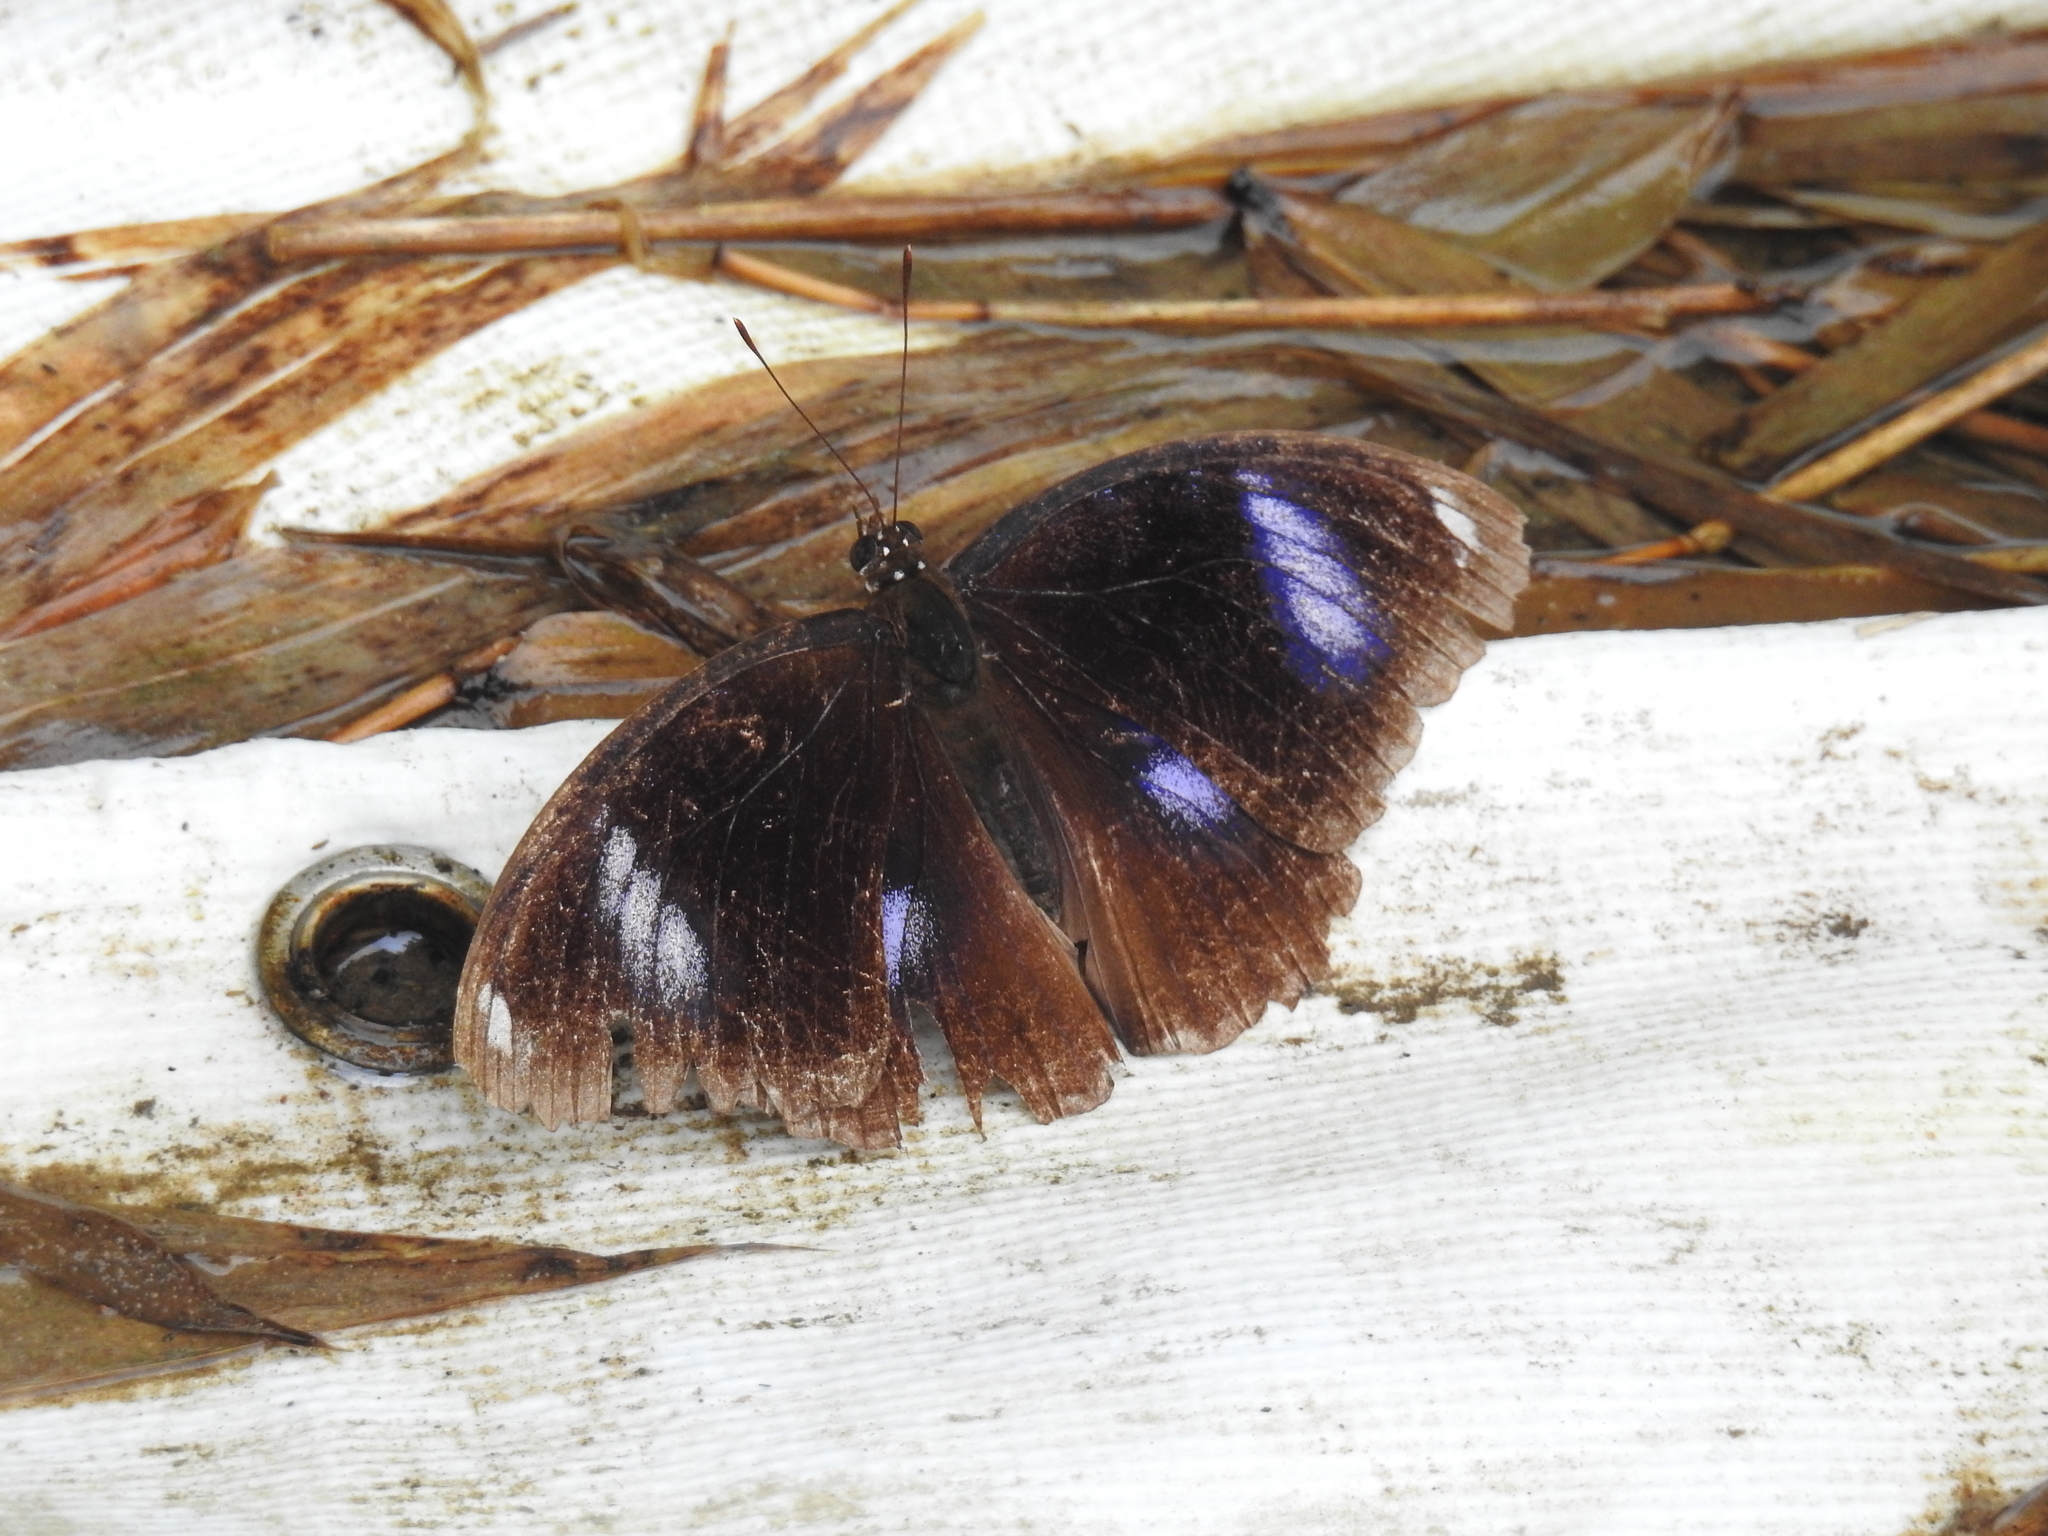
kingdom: Animalia
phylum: Arthropoda
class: Insecta
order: Lepidoptera
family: Nymphalidae
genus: Hypolimnas
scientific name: Hypolimnas bolina
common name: Great eggfly
